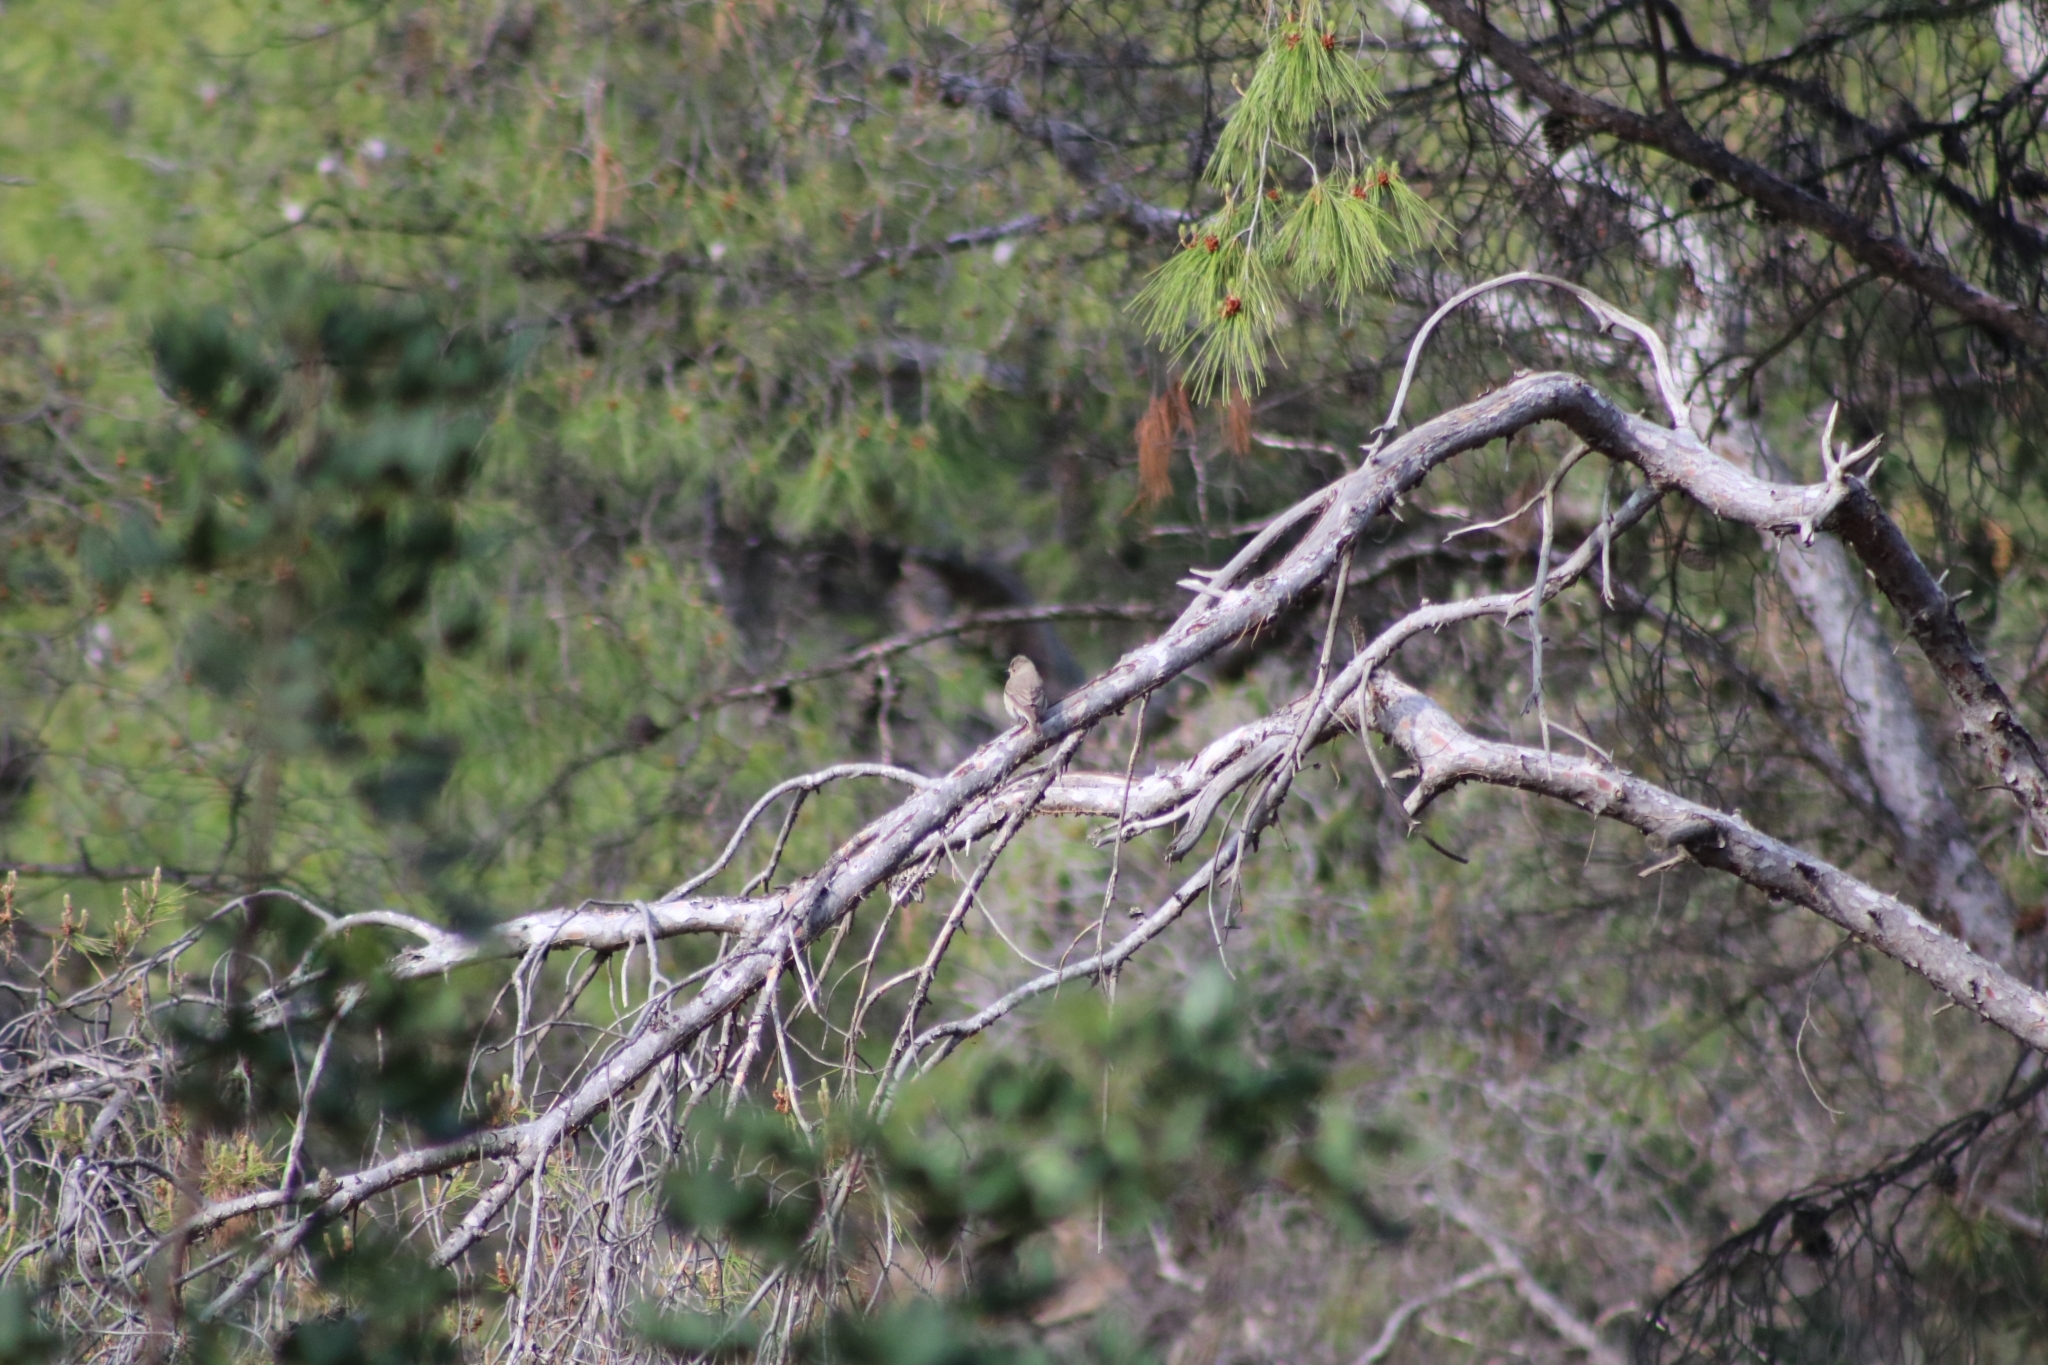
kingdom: Animalia
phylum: Chordata
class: Aves
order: Passeriformes
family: Muscicapidae
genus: Muscicapa
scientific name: Muscicapa striata
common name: Spotted flycatcher
